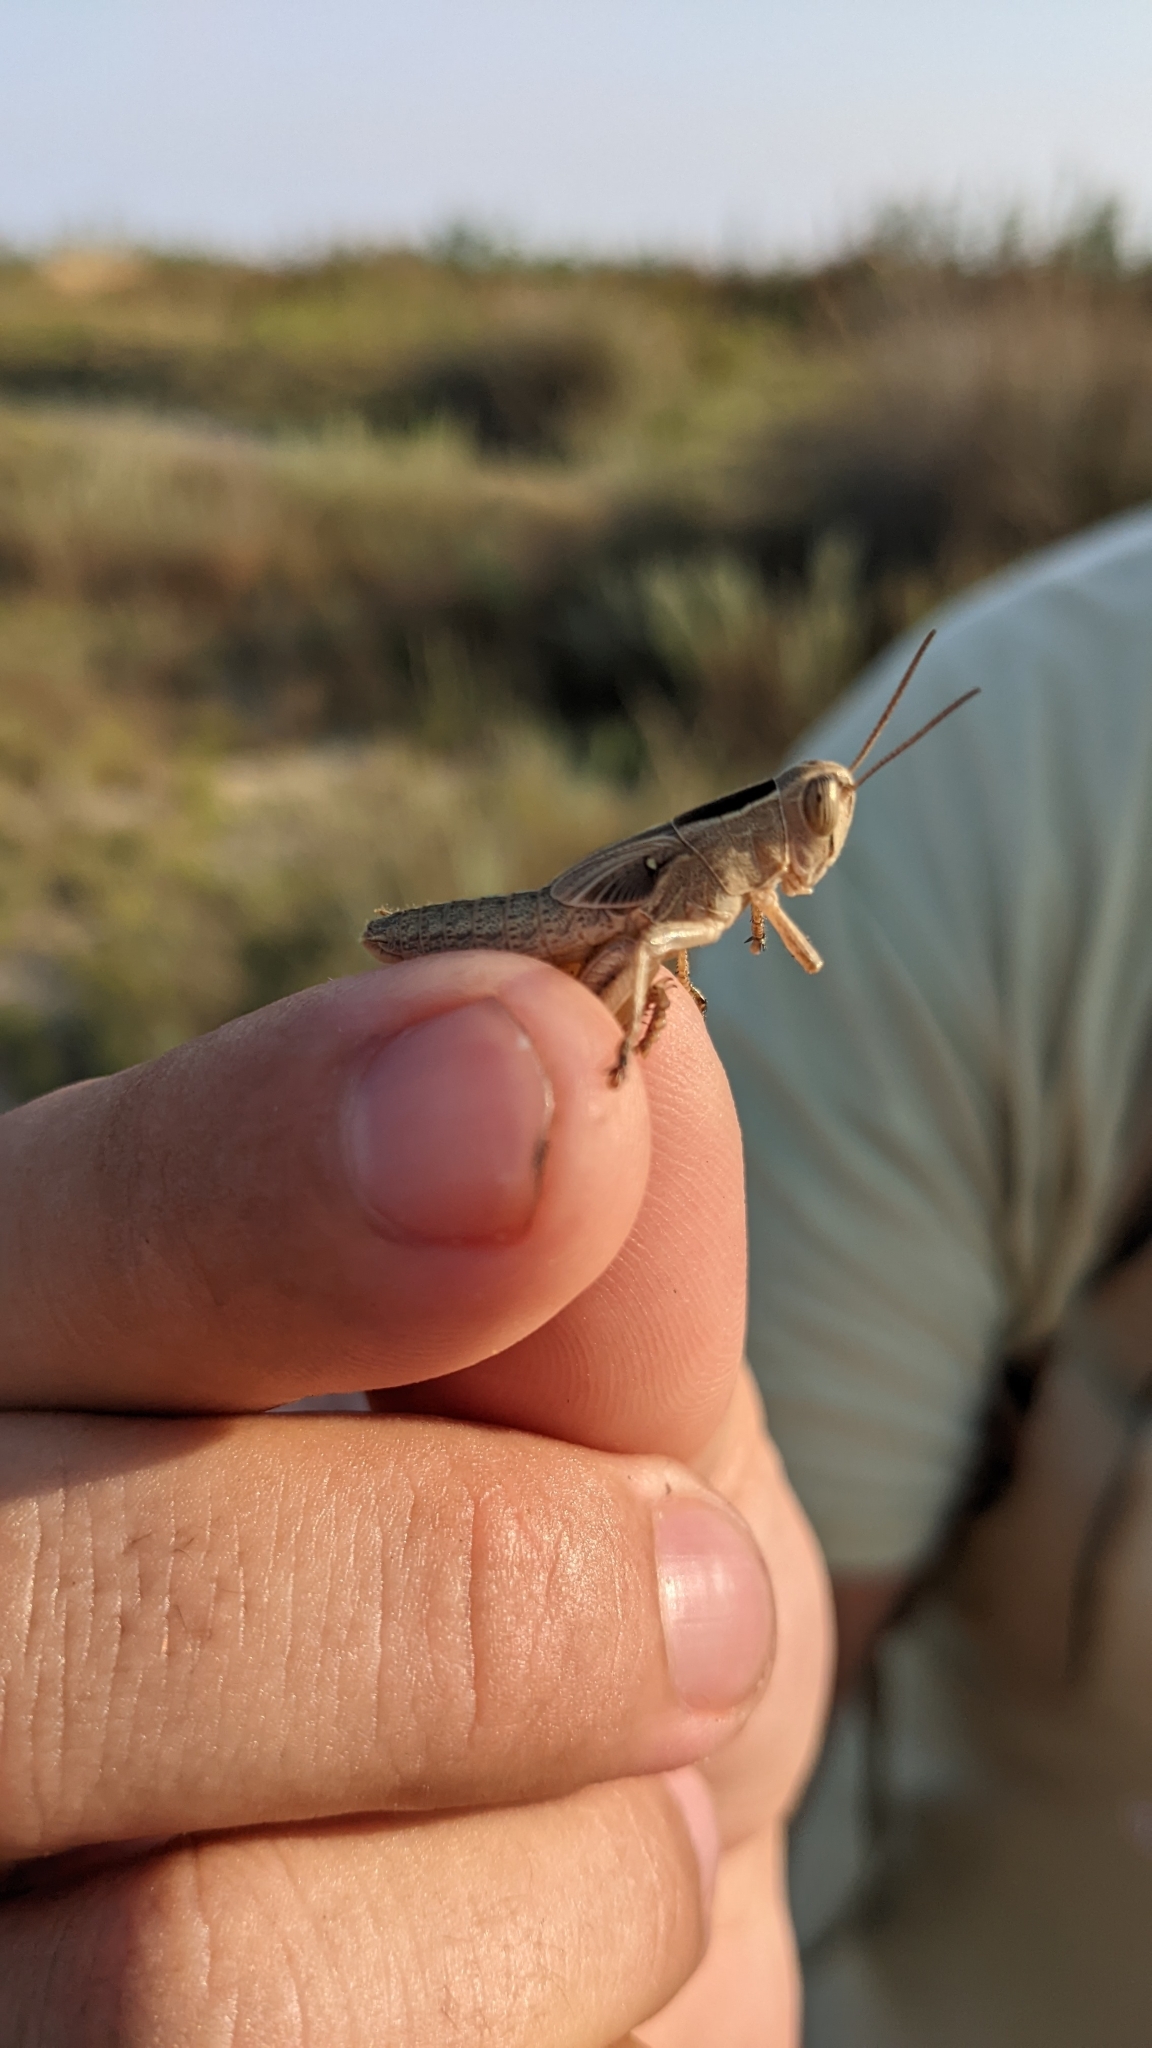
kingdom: Animalia
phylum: Arthropoda
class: Insecta
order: Orthoptera
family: Acrididae
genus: Eyprepocnemis
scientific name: Eyprepocnemis plorans
